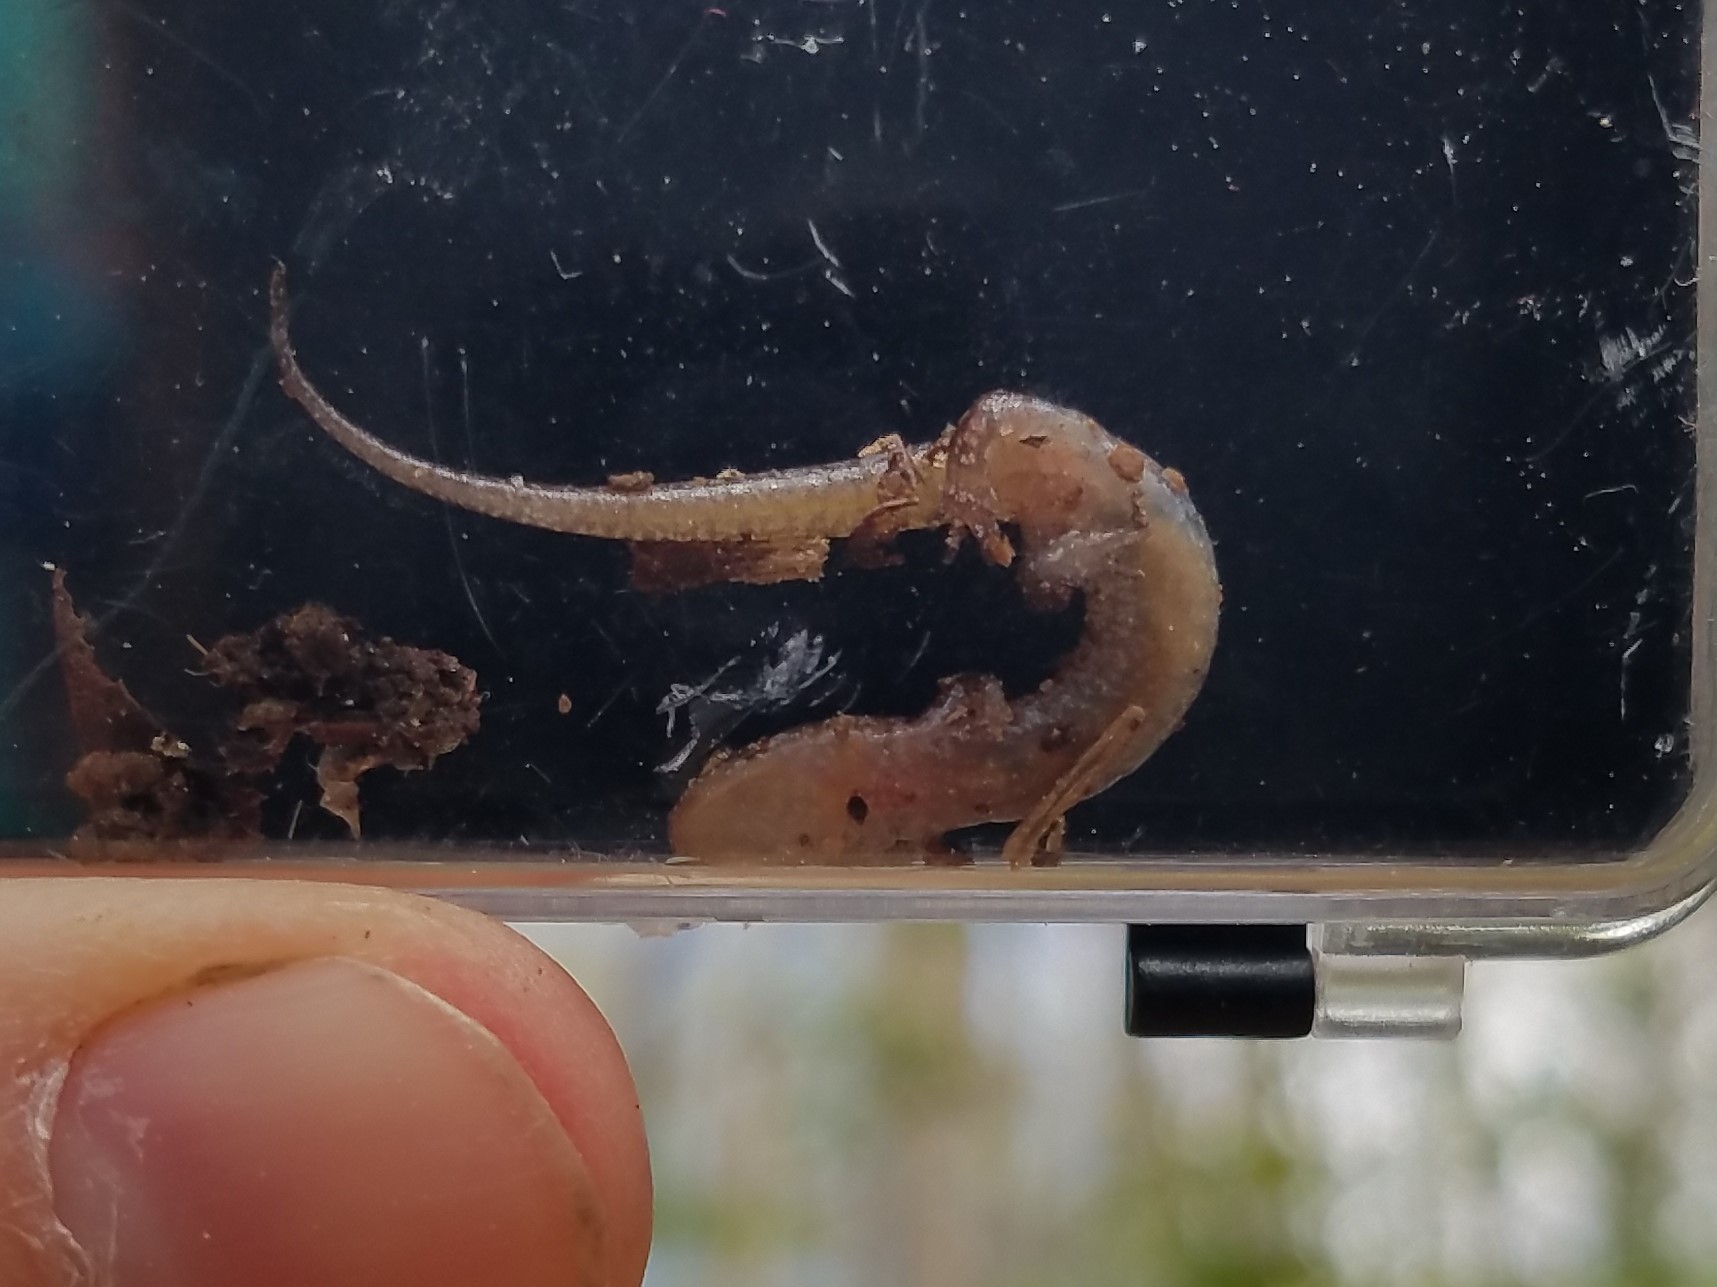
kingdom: Animalia
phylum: Chordata
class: Amphibia
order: Caudata
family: Plethodontidae
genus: Desmognathus
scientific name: Desmognathus aeneus
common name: Seepage salamander
